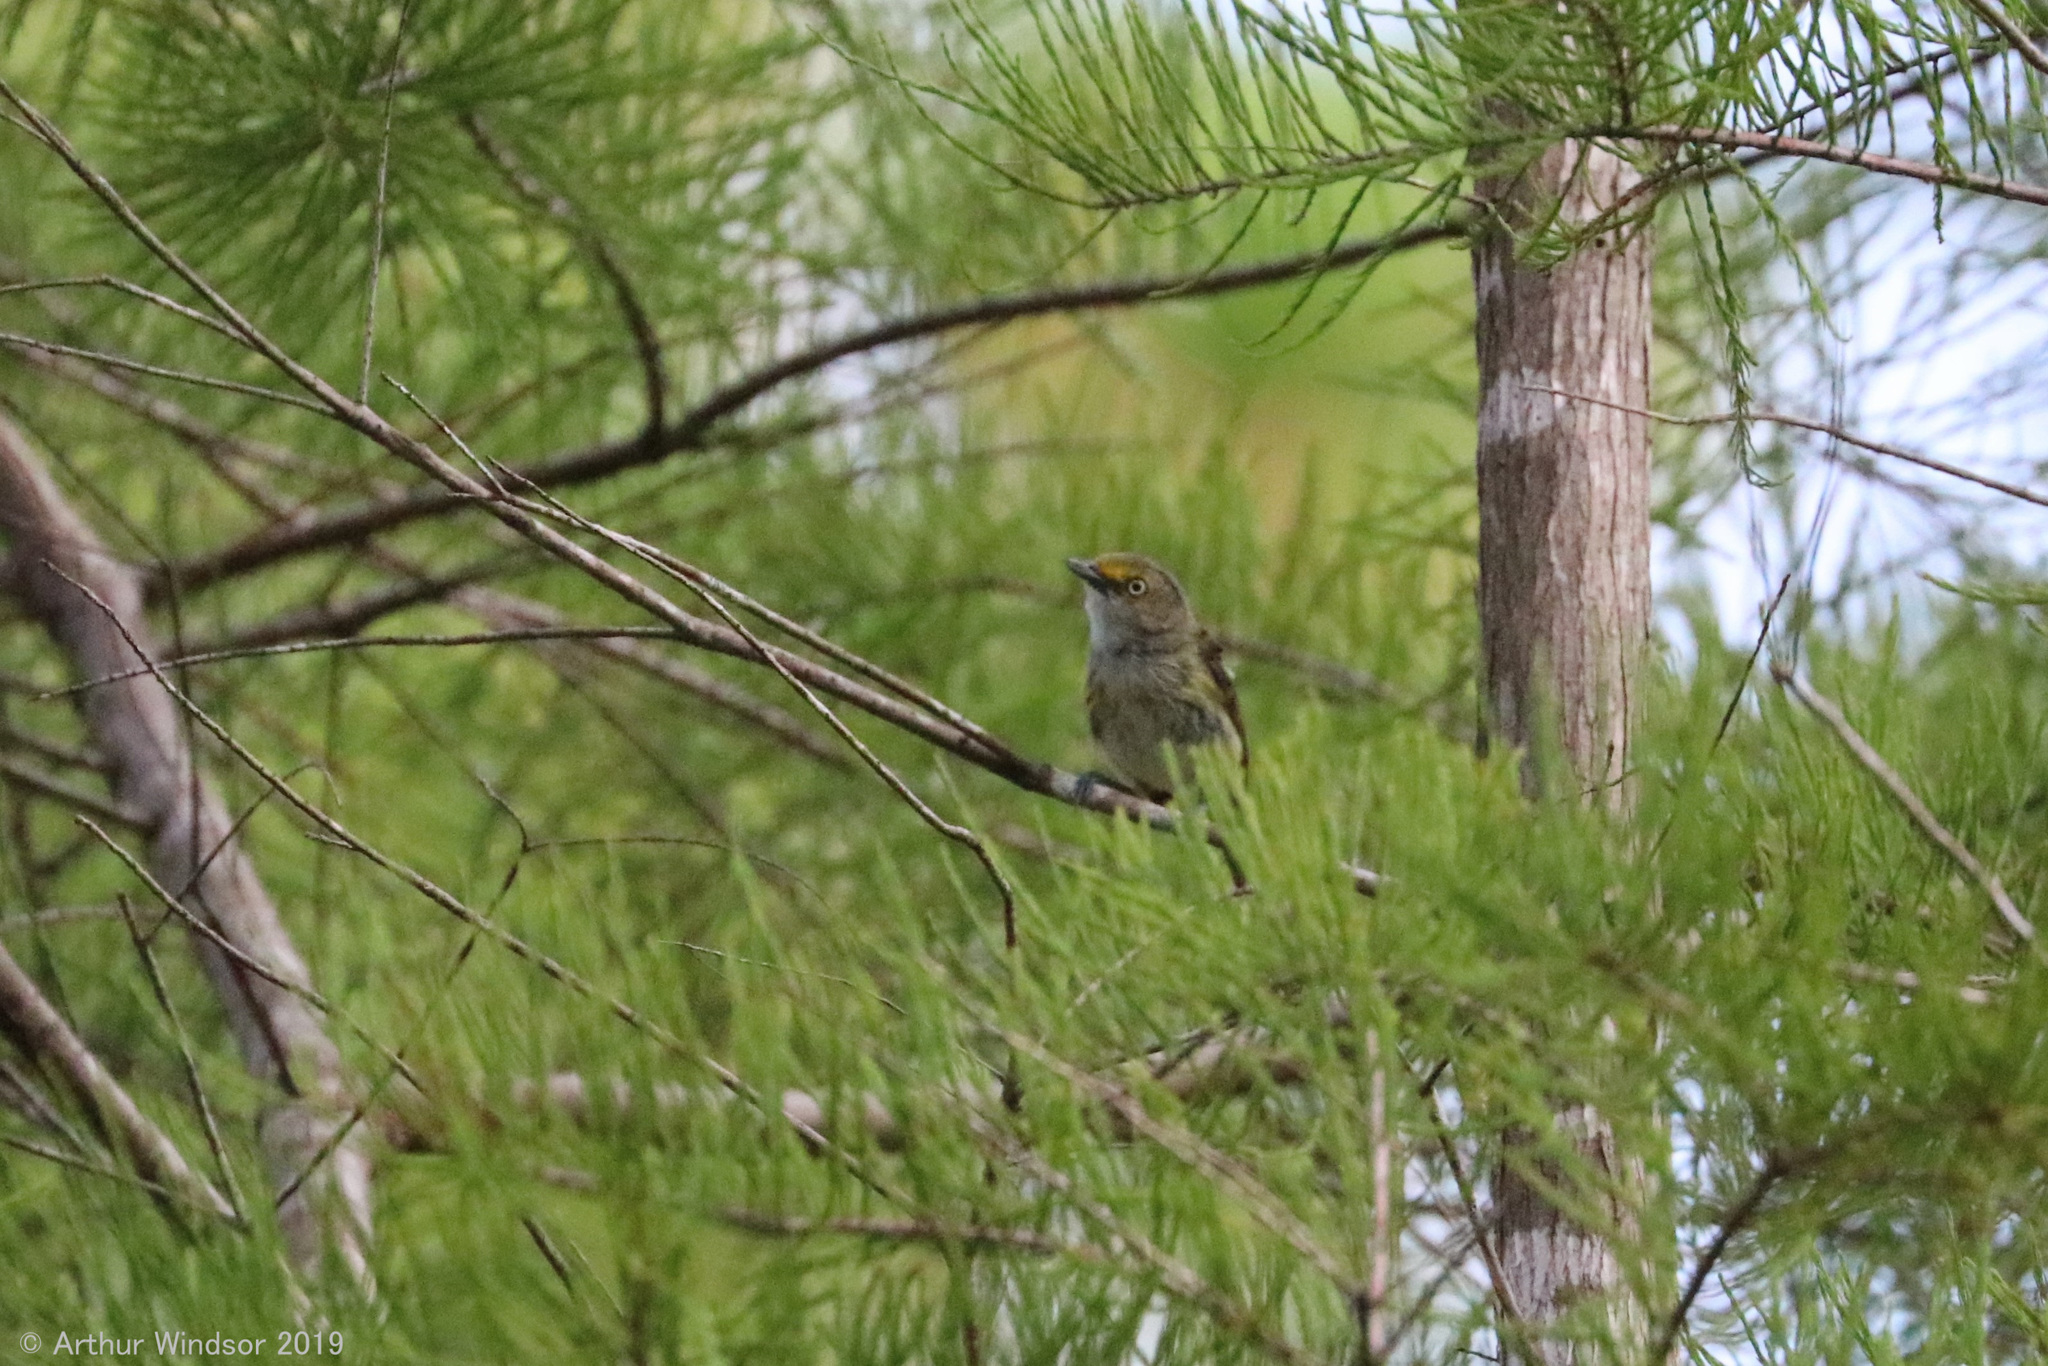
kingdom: Animalia
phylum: Chordata
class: Aves
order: Passeriformes
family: Vireonidae
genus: Vireo
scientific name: Vireo griseus
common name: White-eyed vireo
